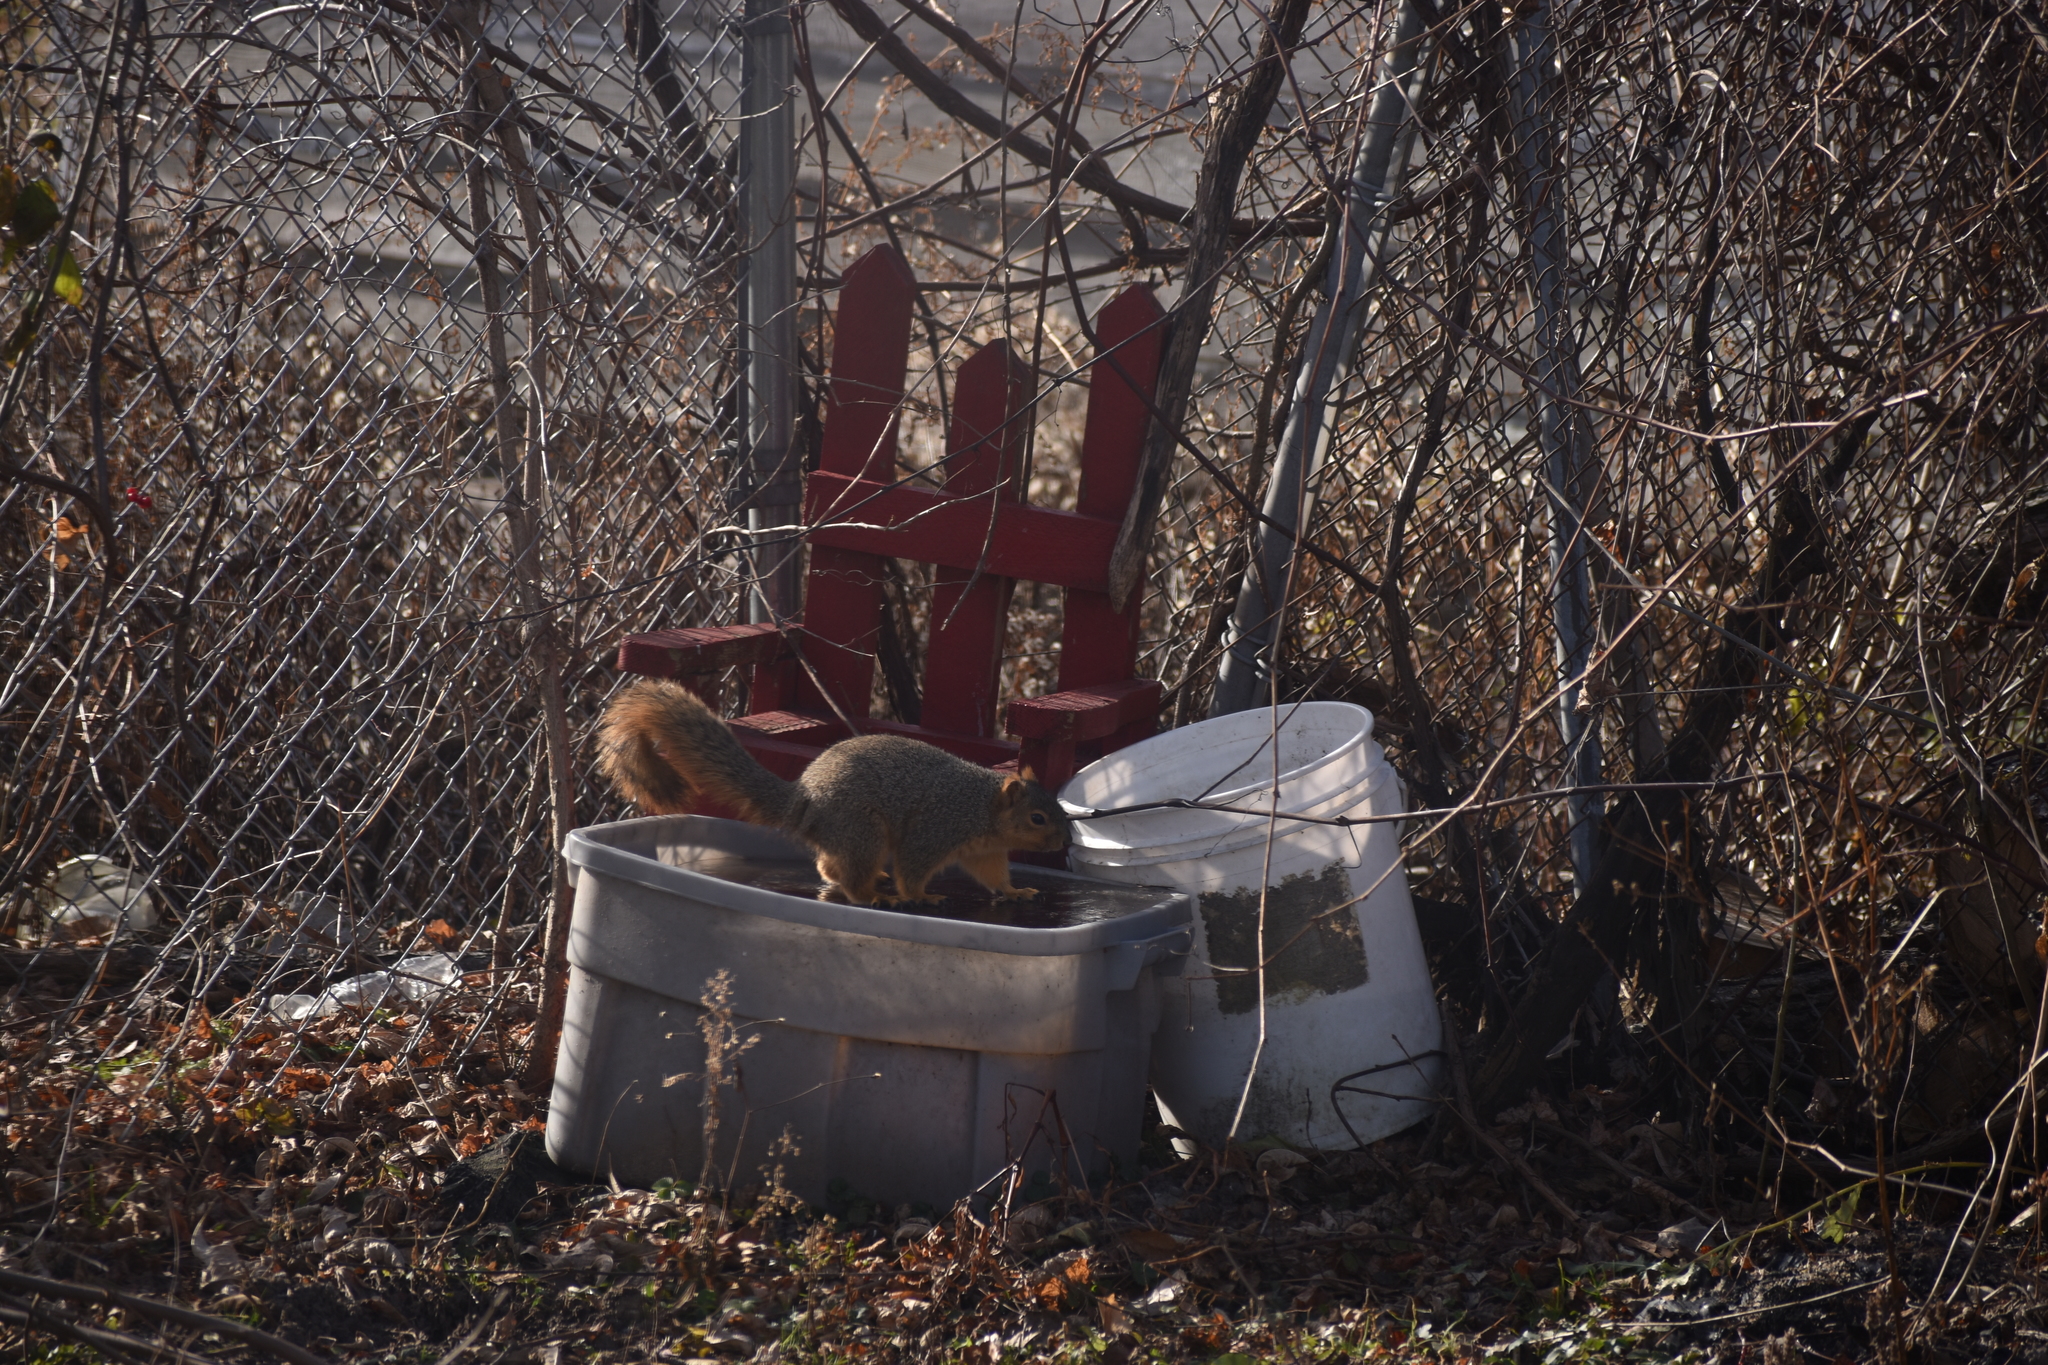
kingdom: Animalia
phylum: Chordata
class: Mammalia
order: Rodentia
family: Sciuridae
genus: Sciurus
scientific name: Sciurus niger
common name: Fox squirrel
